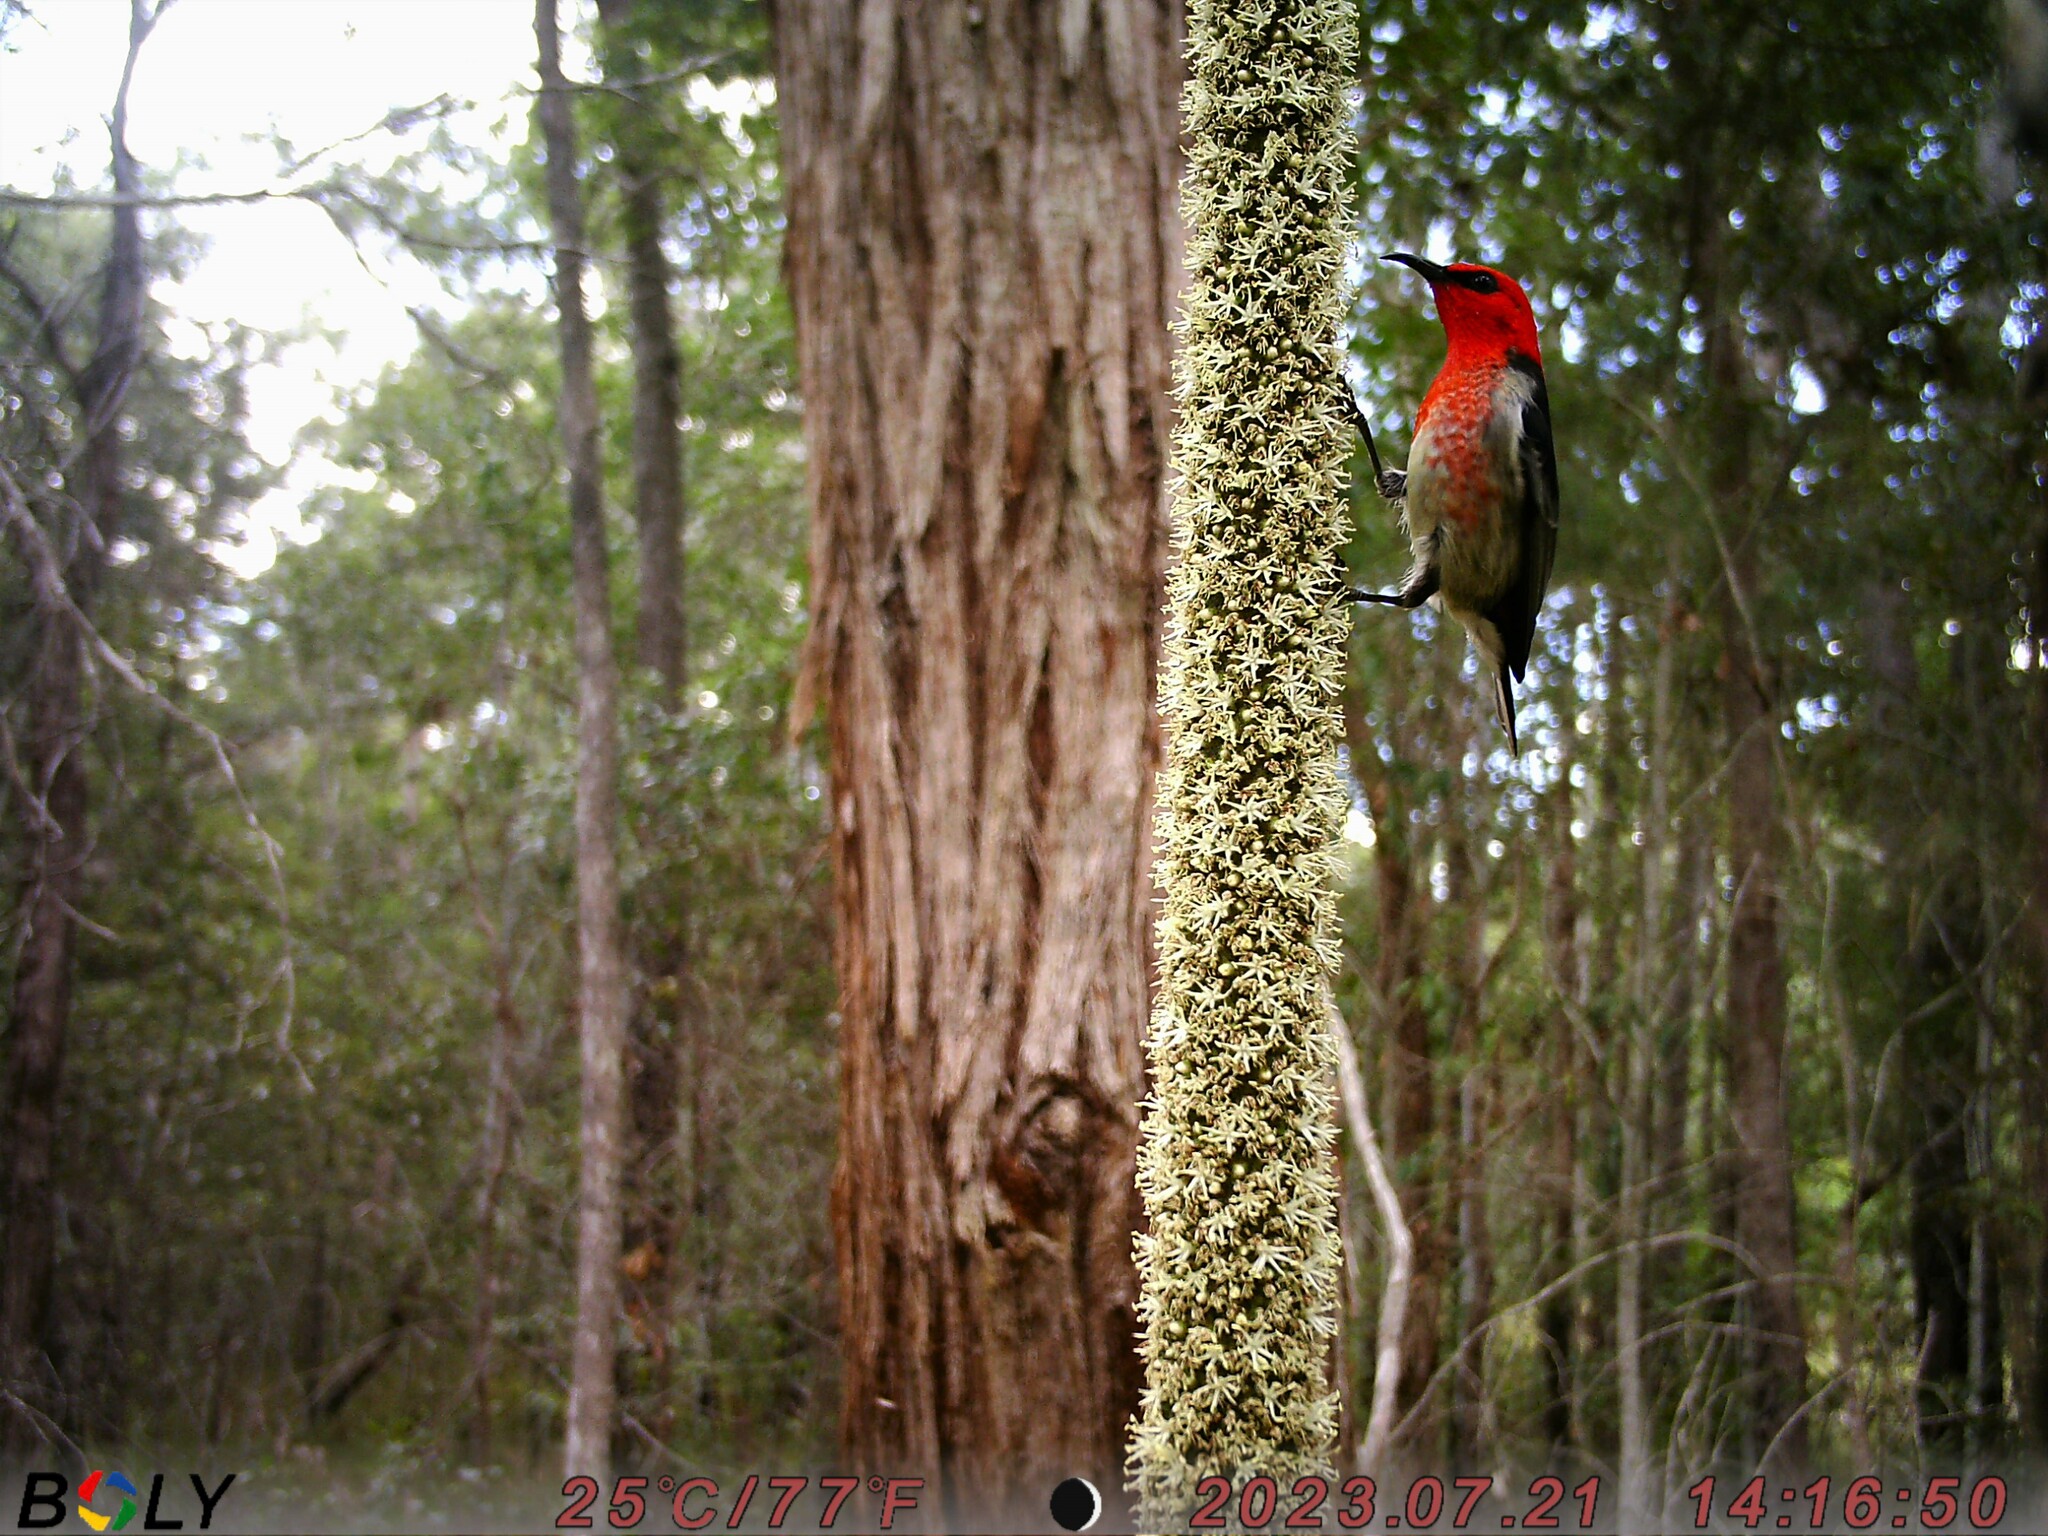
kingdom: Animalia
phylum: Chordata
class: Aves
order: Passeriformes
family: Meliphagidae
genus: Myzomela
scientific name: Myzomela sanguinolenta
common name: Scarlet myzomela
